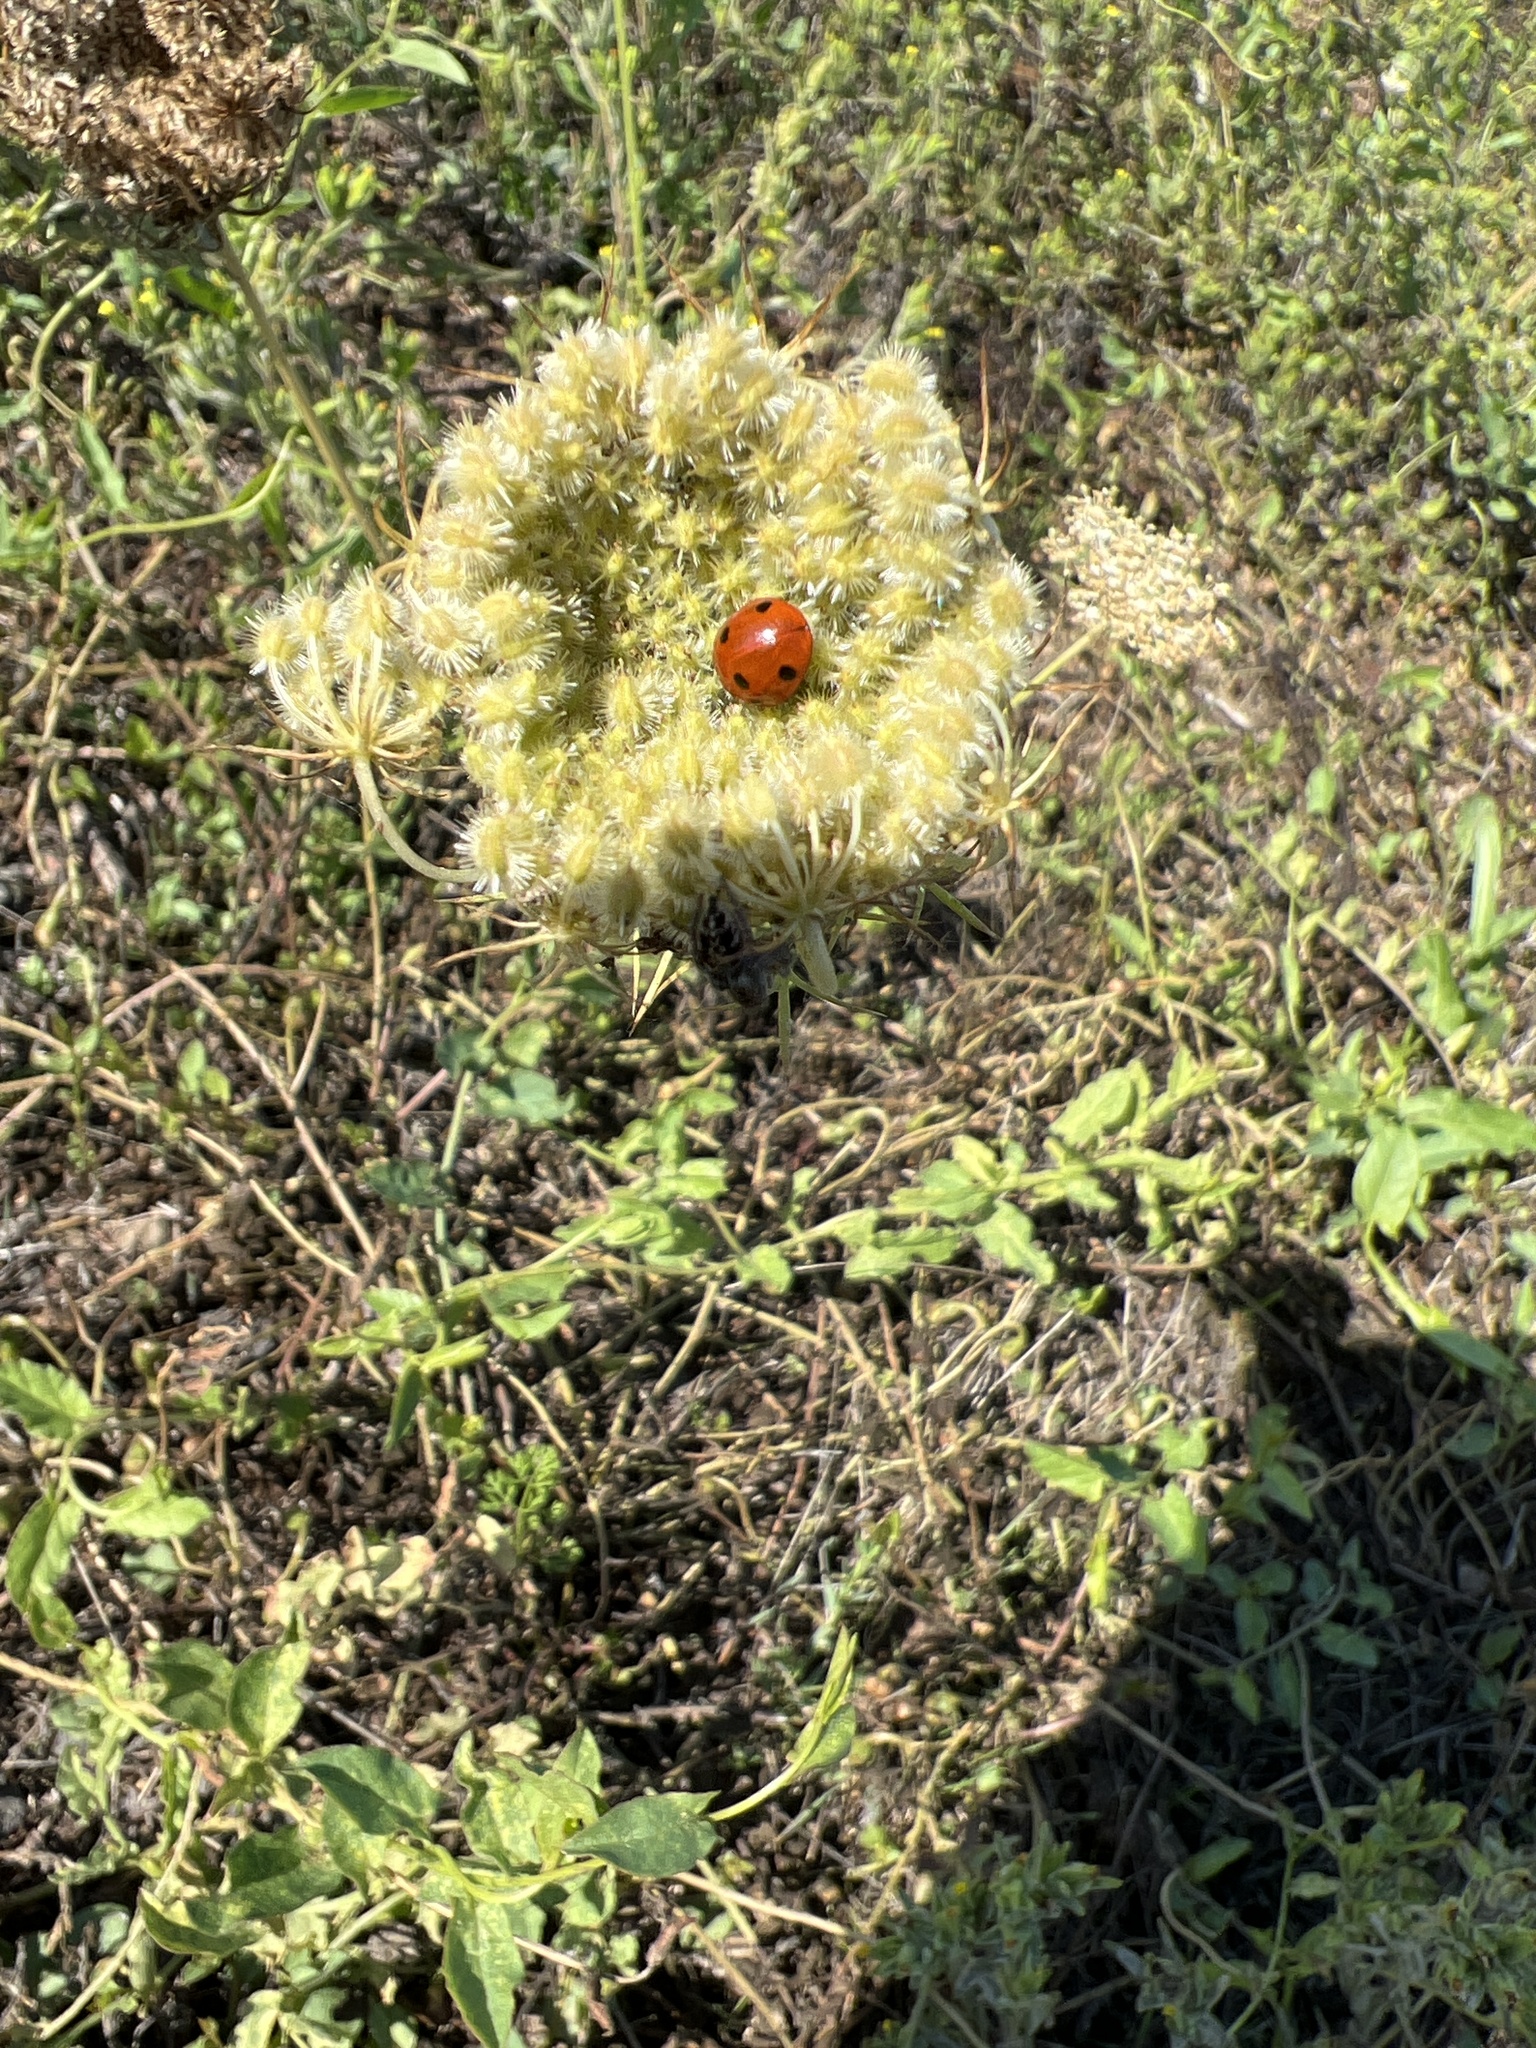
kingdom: Animalia
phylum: Arthropoda
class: Insecta
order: Coleoptera
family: Coccinellidae
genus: Coccinella
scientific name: Coccinella septempunctata
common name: Sevenspotted lady beetle
